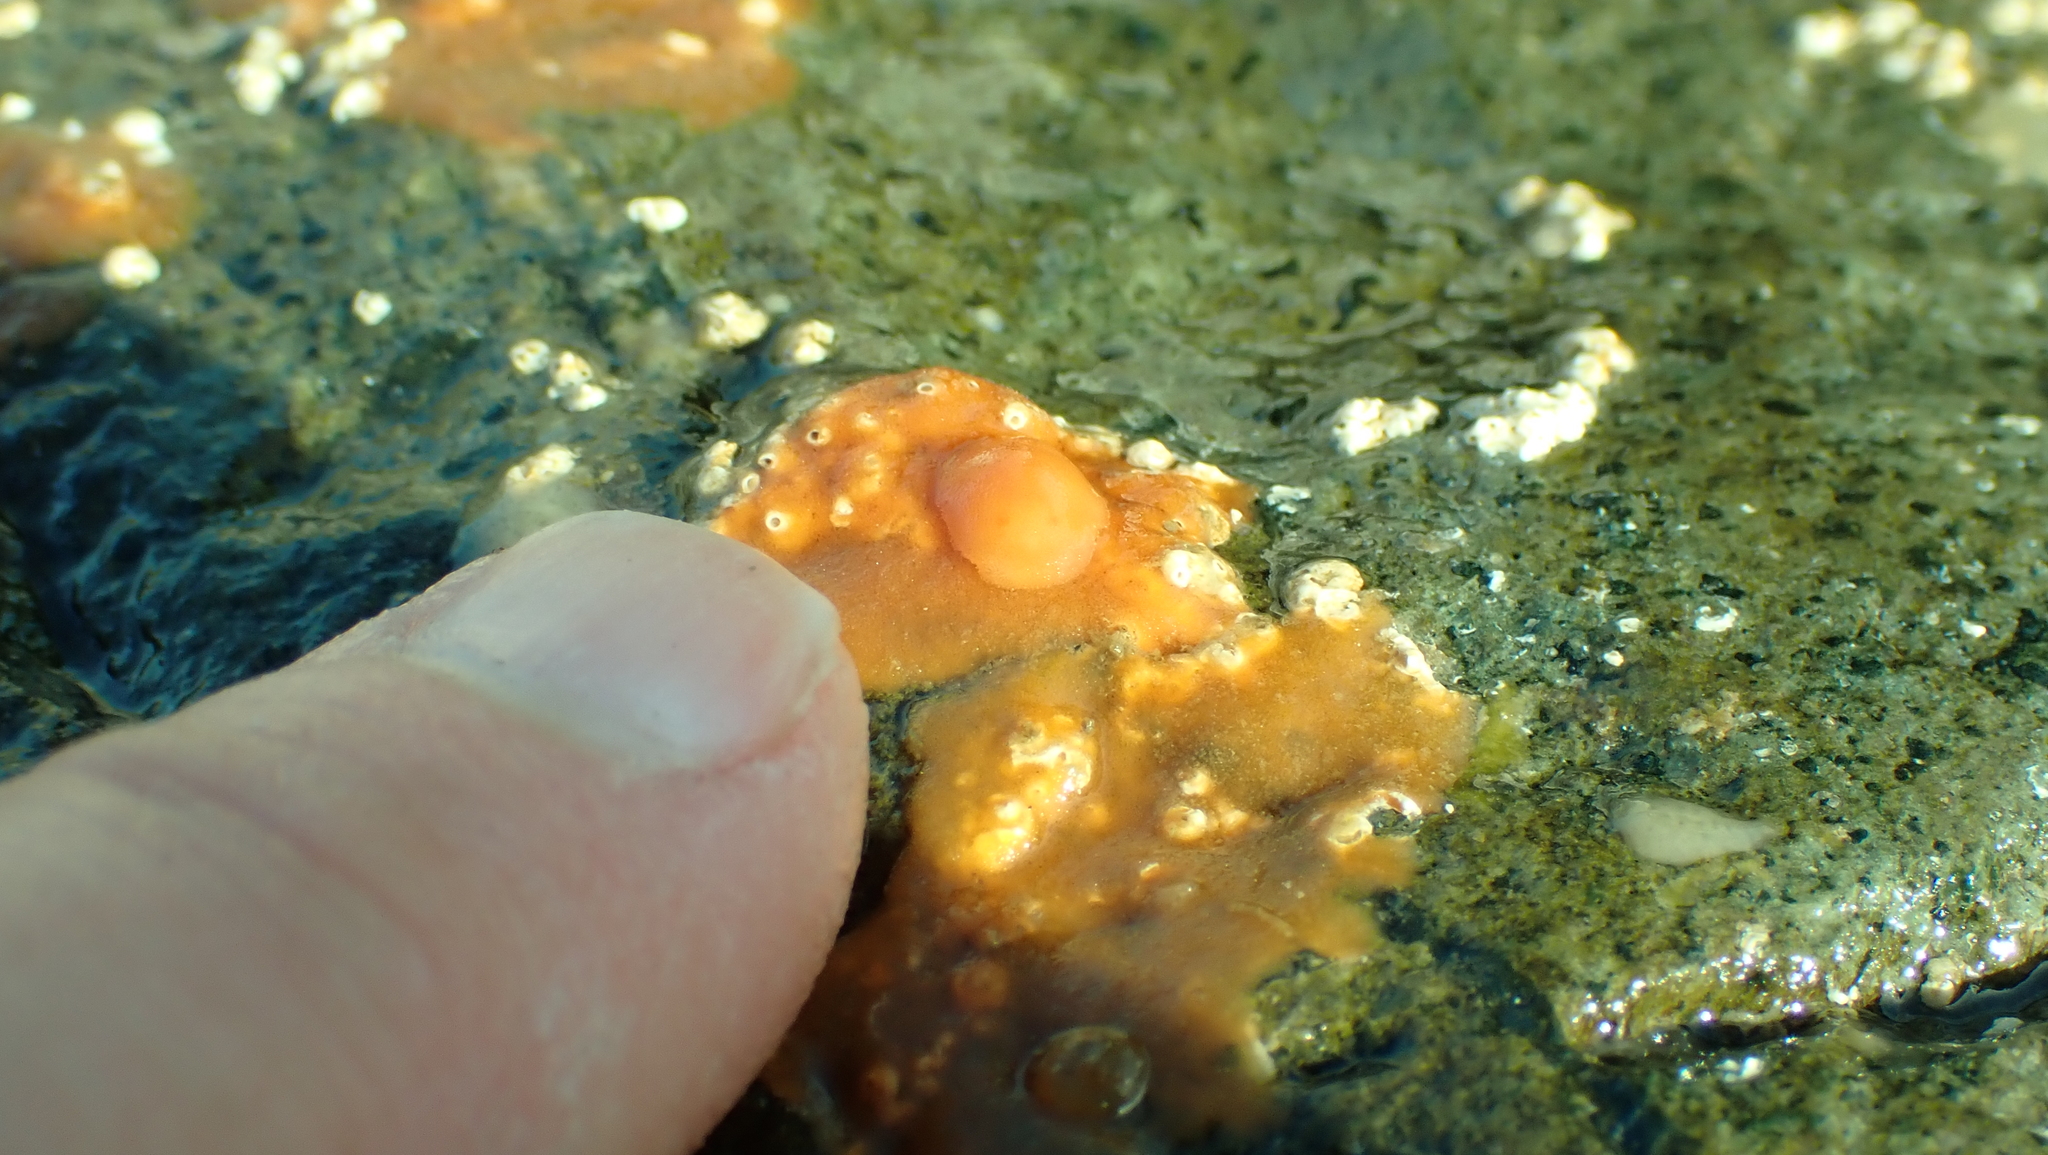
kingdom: Animalia
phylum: Mollusca
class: Gastropoda
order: Nudibranchia
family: Discodorididae
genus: Rostanga
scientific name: Rostanga pulchra
